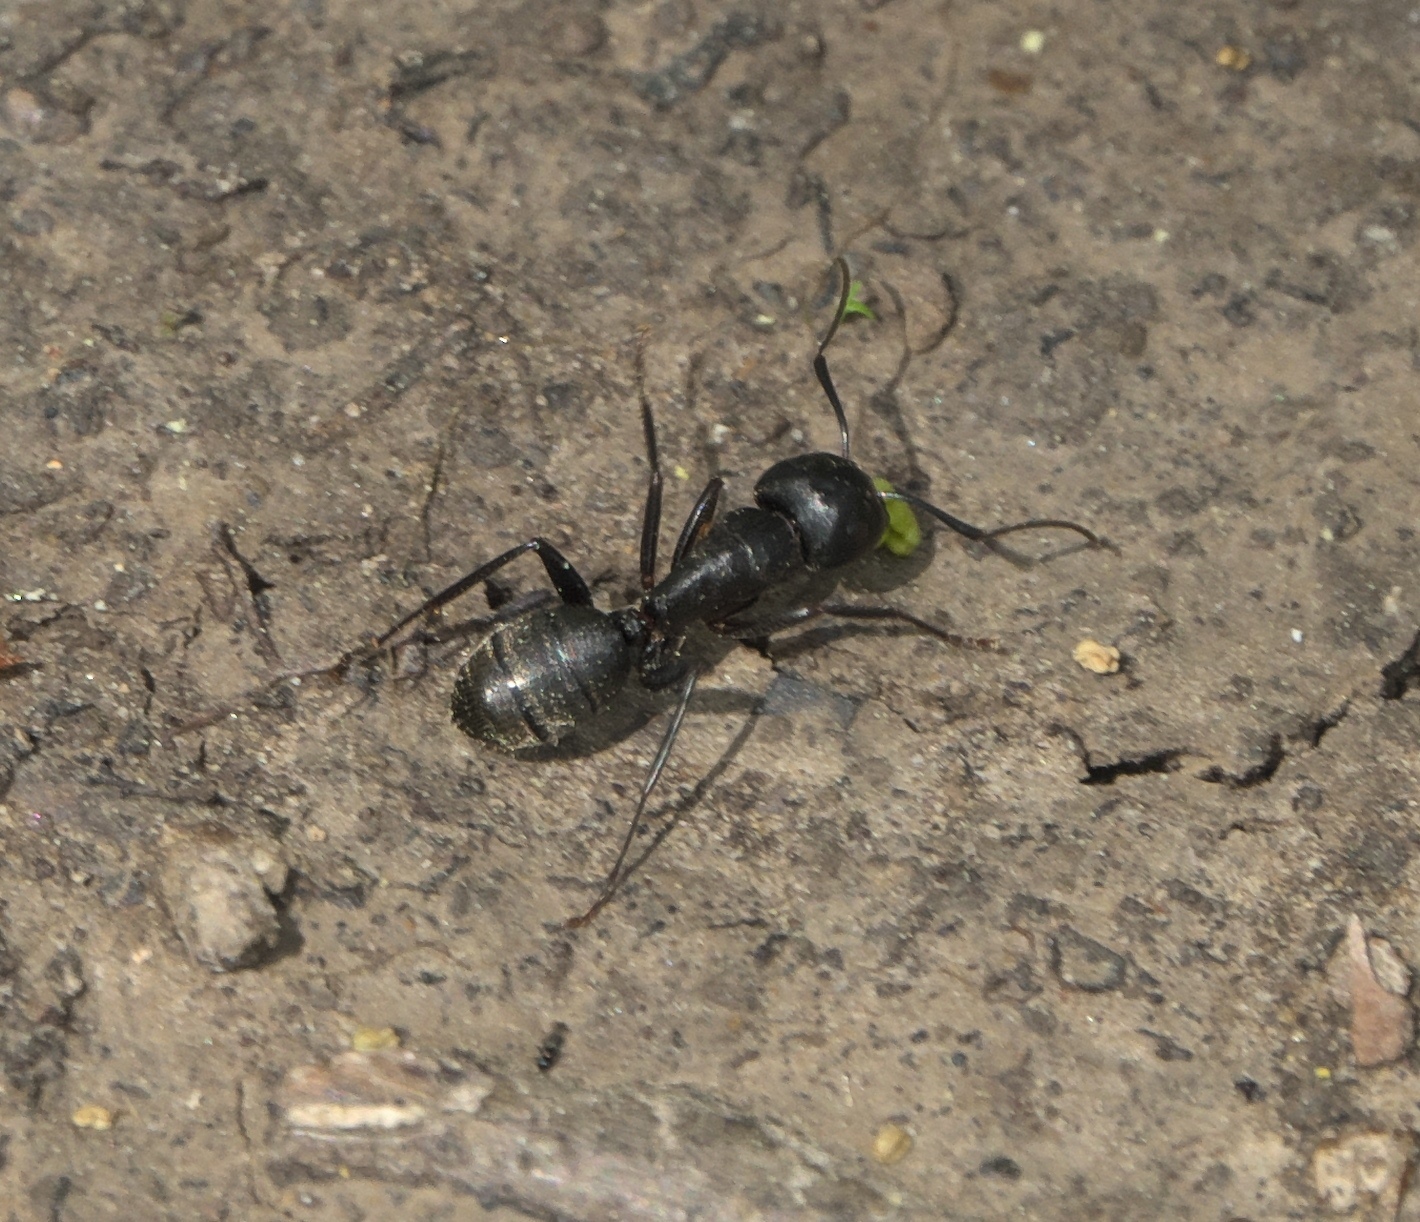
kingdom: Animalia
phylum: Arthropoda
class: Insecta
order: Hymenoptera
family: Formicidae
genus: Camponotus
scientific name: Camponotus pennsylvanicus
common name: Black carpenter ant
